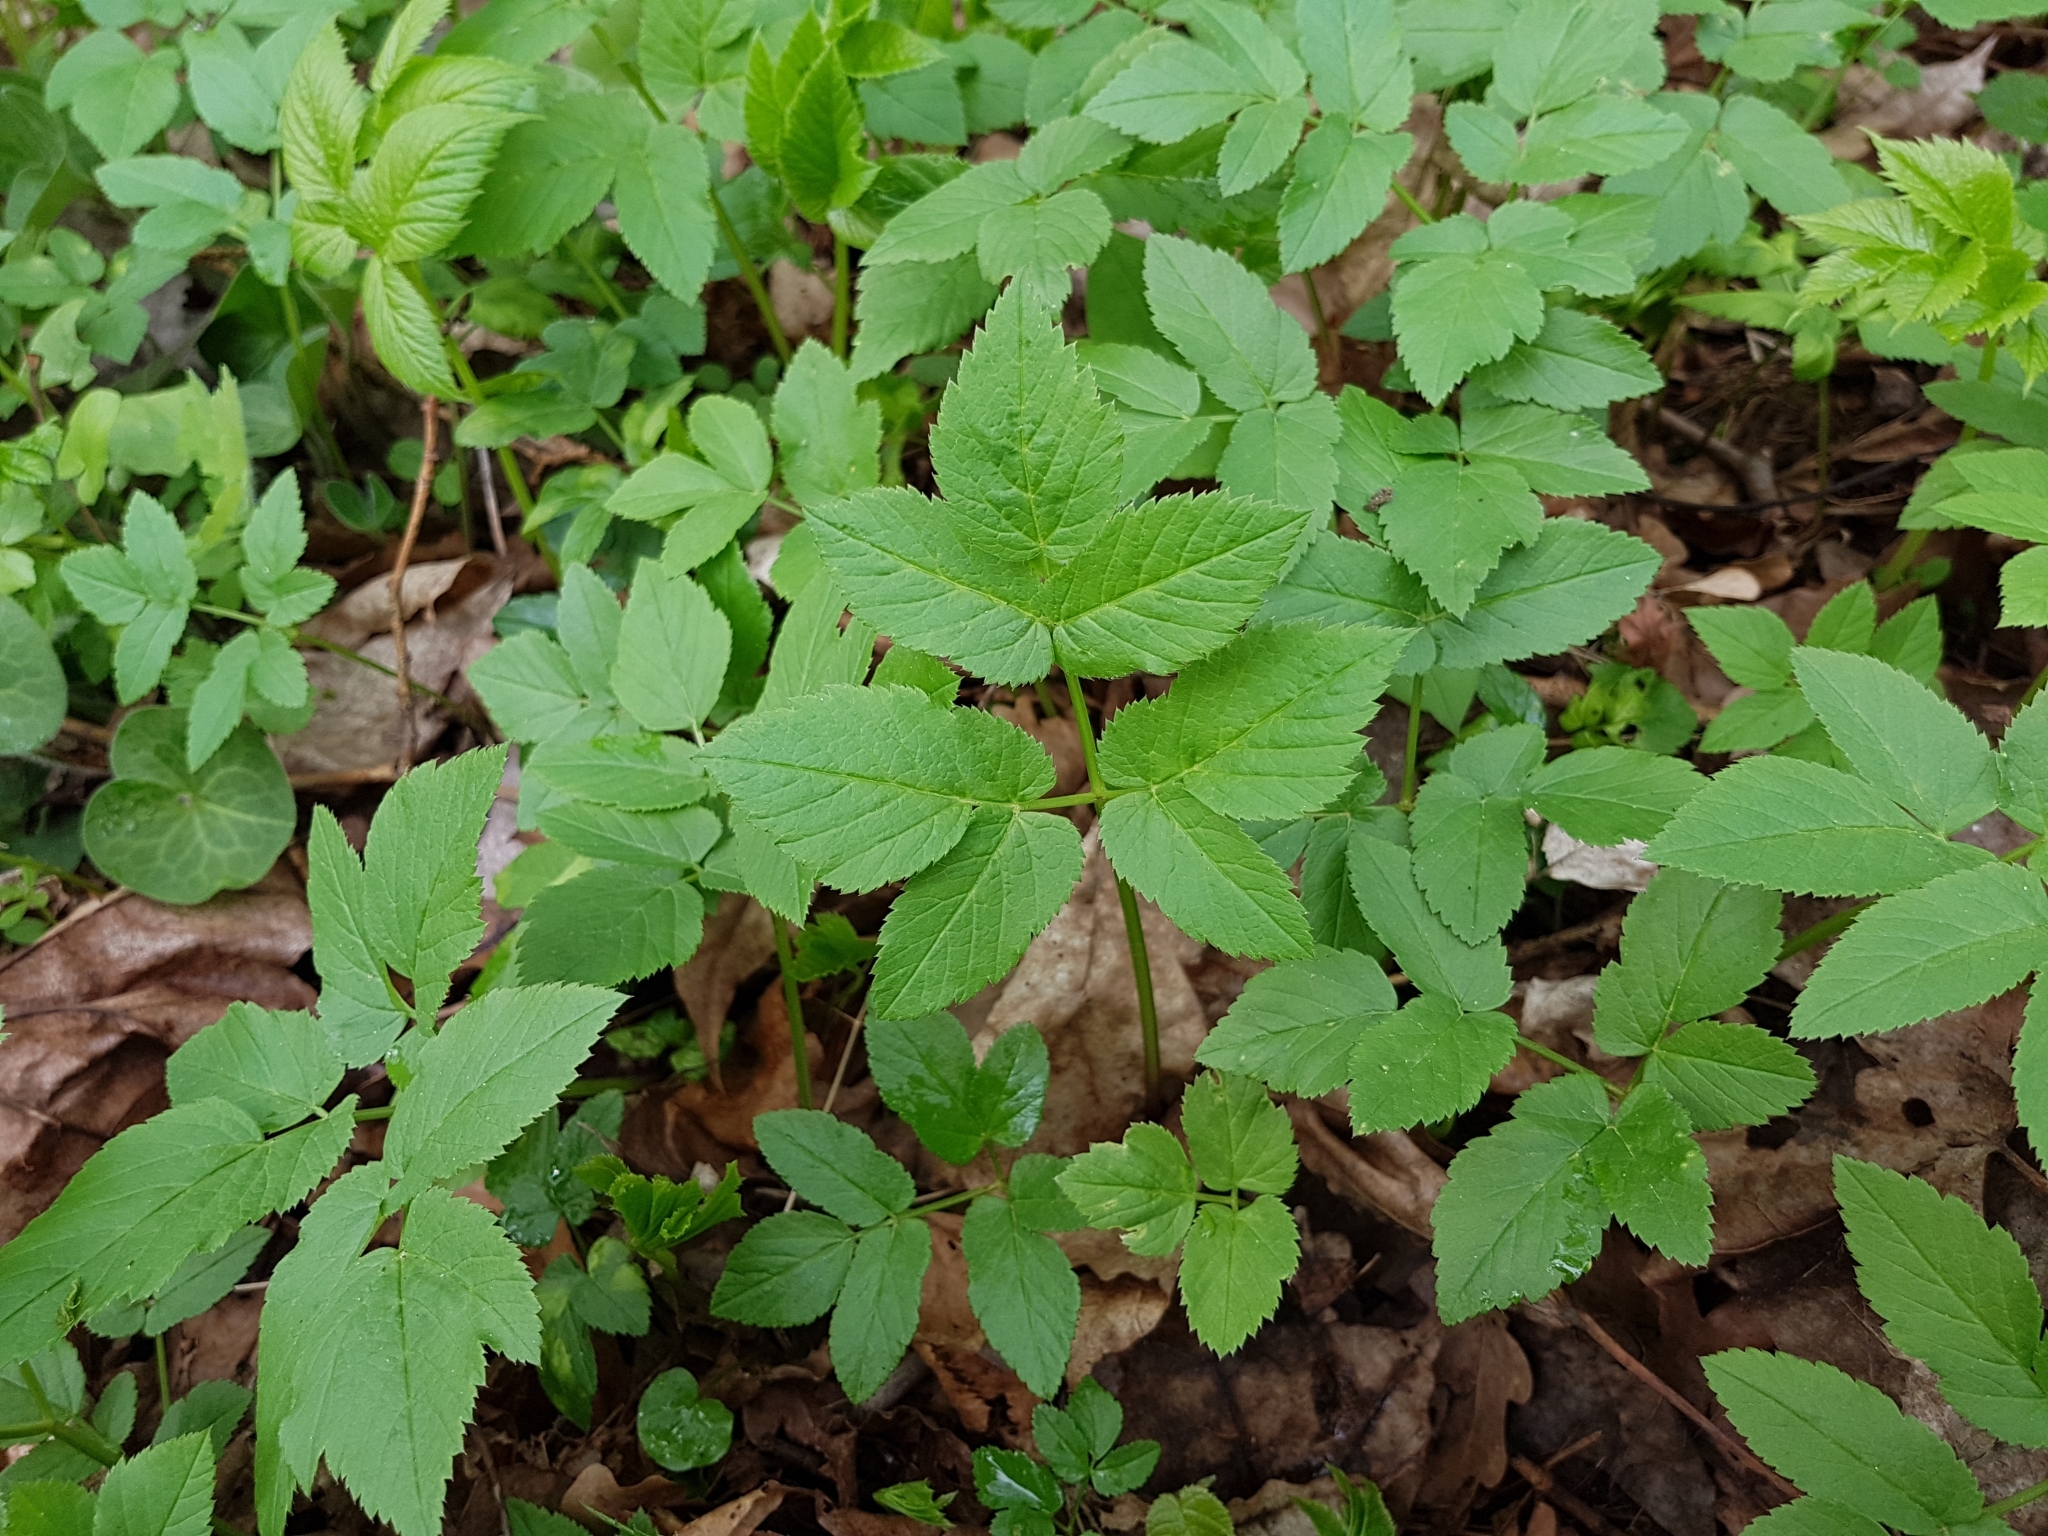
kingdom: Plantae
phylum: Tracheophyta
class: Magnoliopsida
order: Apiales
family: Apiaceae
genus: Aegopodium
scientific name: Aegopodium podagraria
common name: Ground-elder
